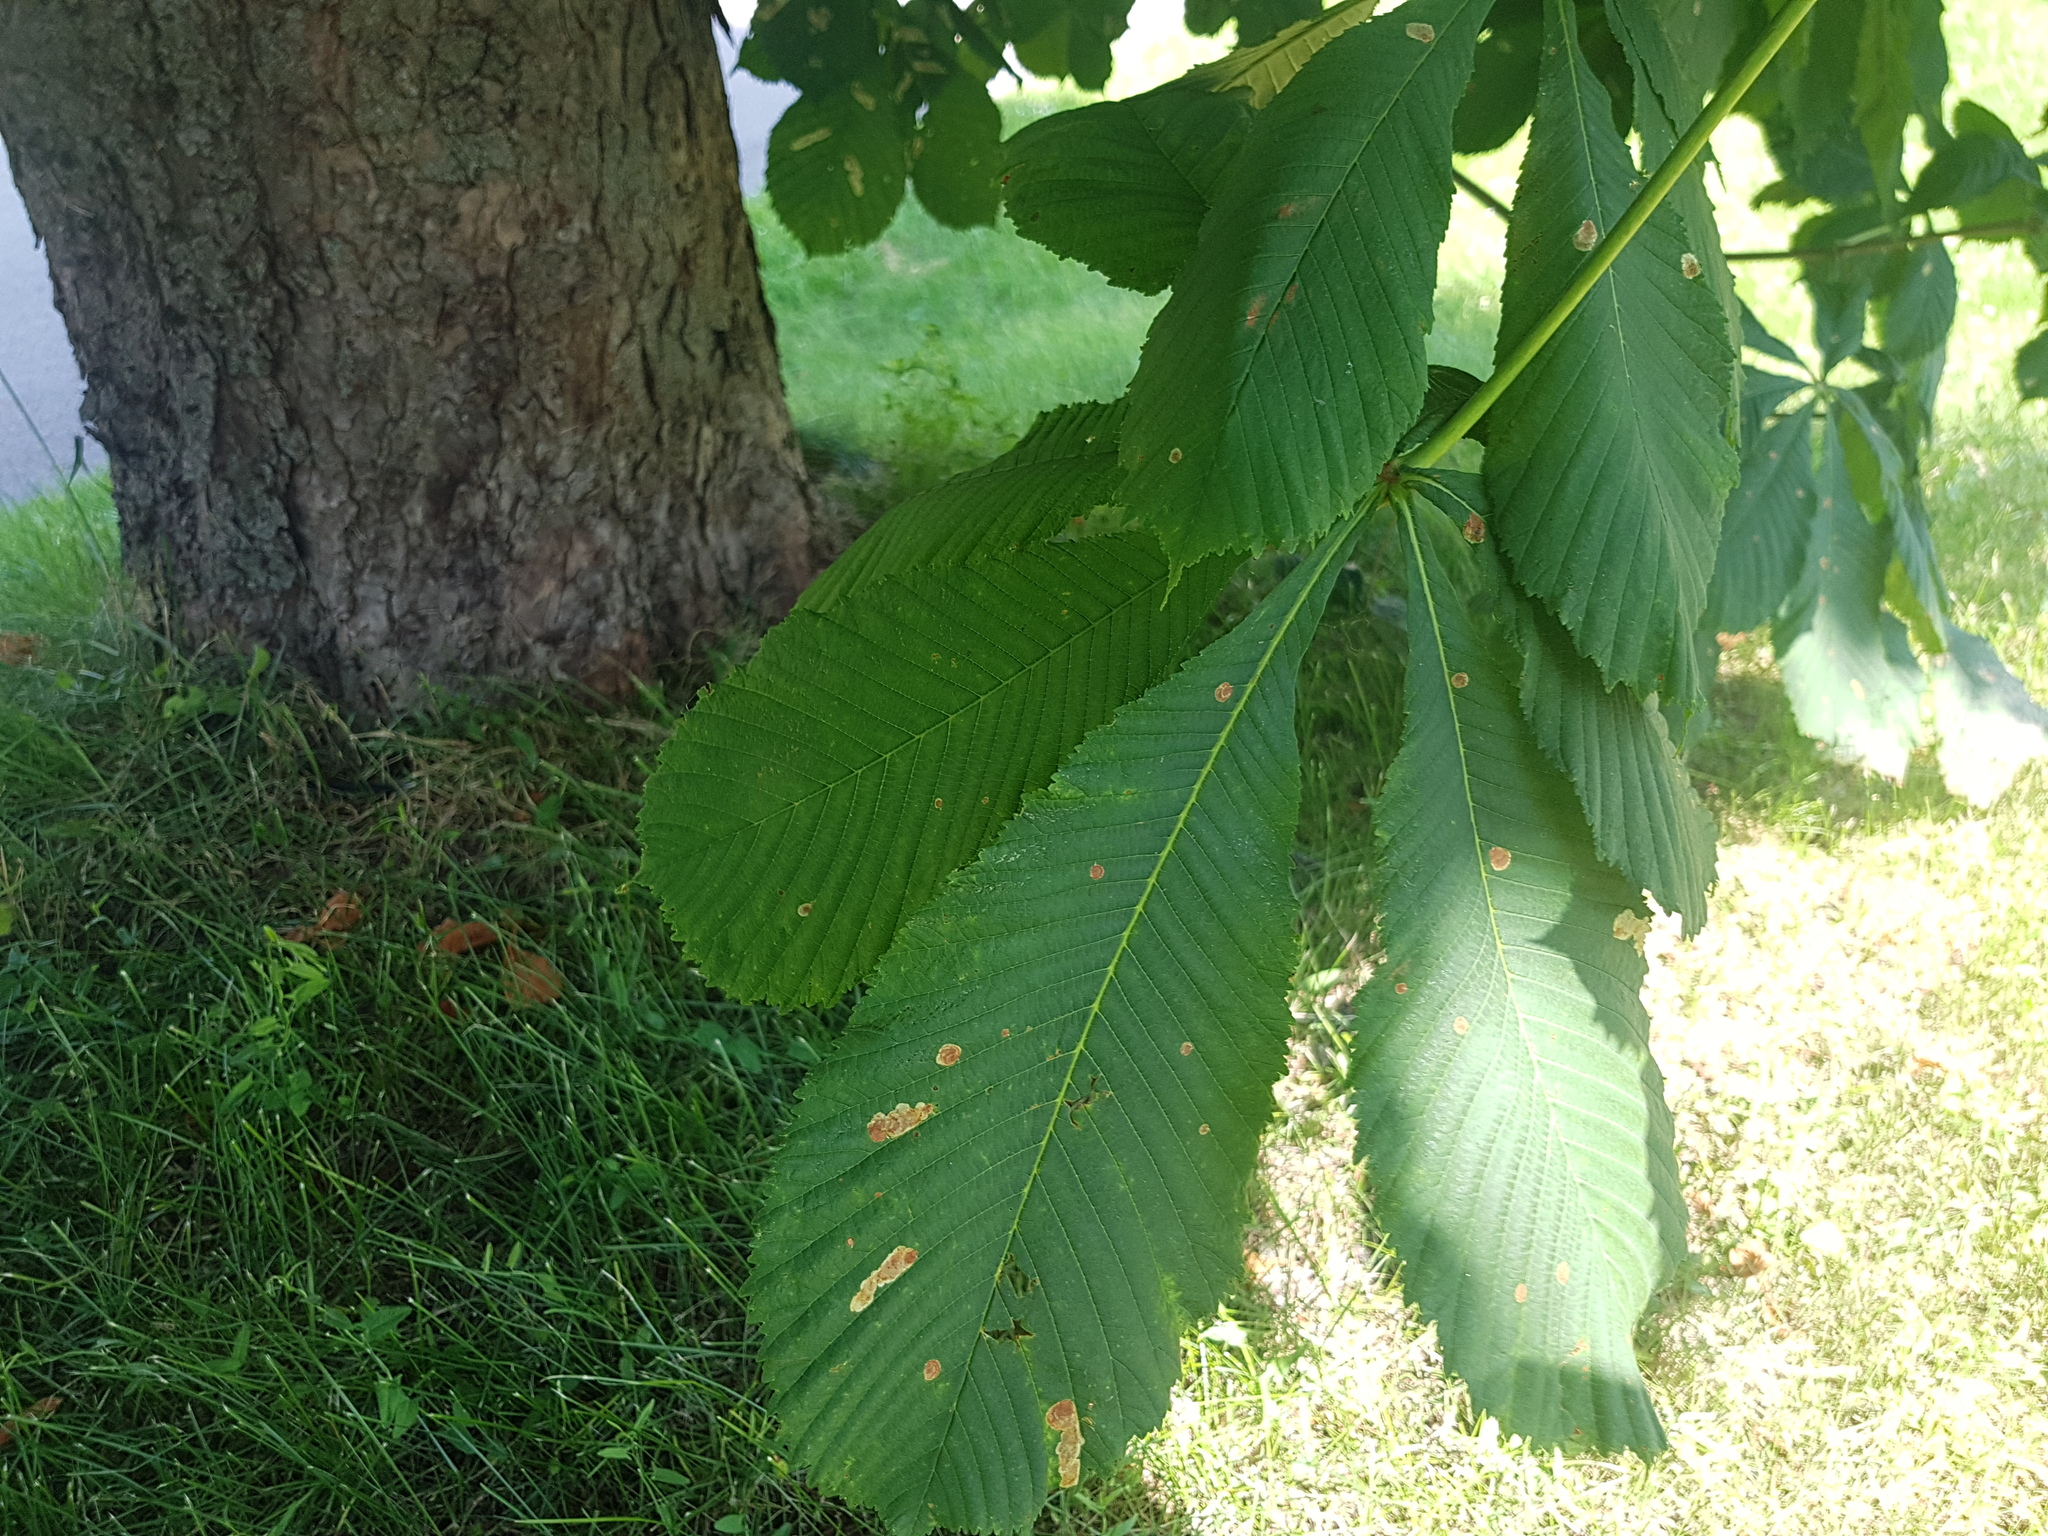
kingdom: Animalia
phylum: Arthropoda
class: Insecta
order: Lepidoptera
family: Gracillariidae
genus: Cameraria
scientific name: Cameraria ohridella
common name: Horse-chestnut leaf-miner
